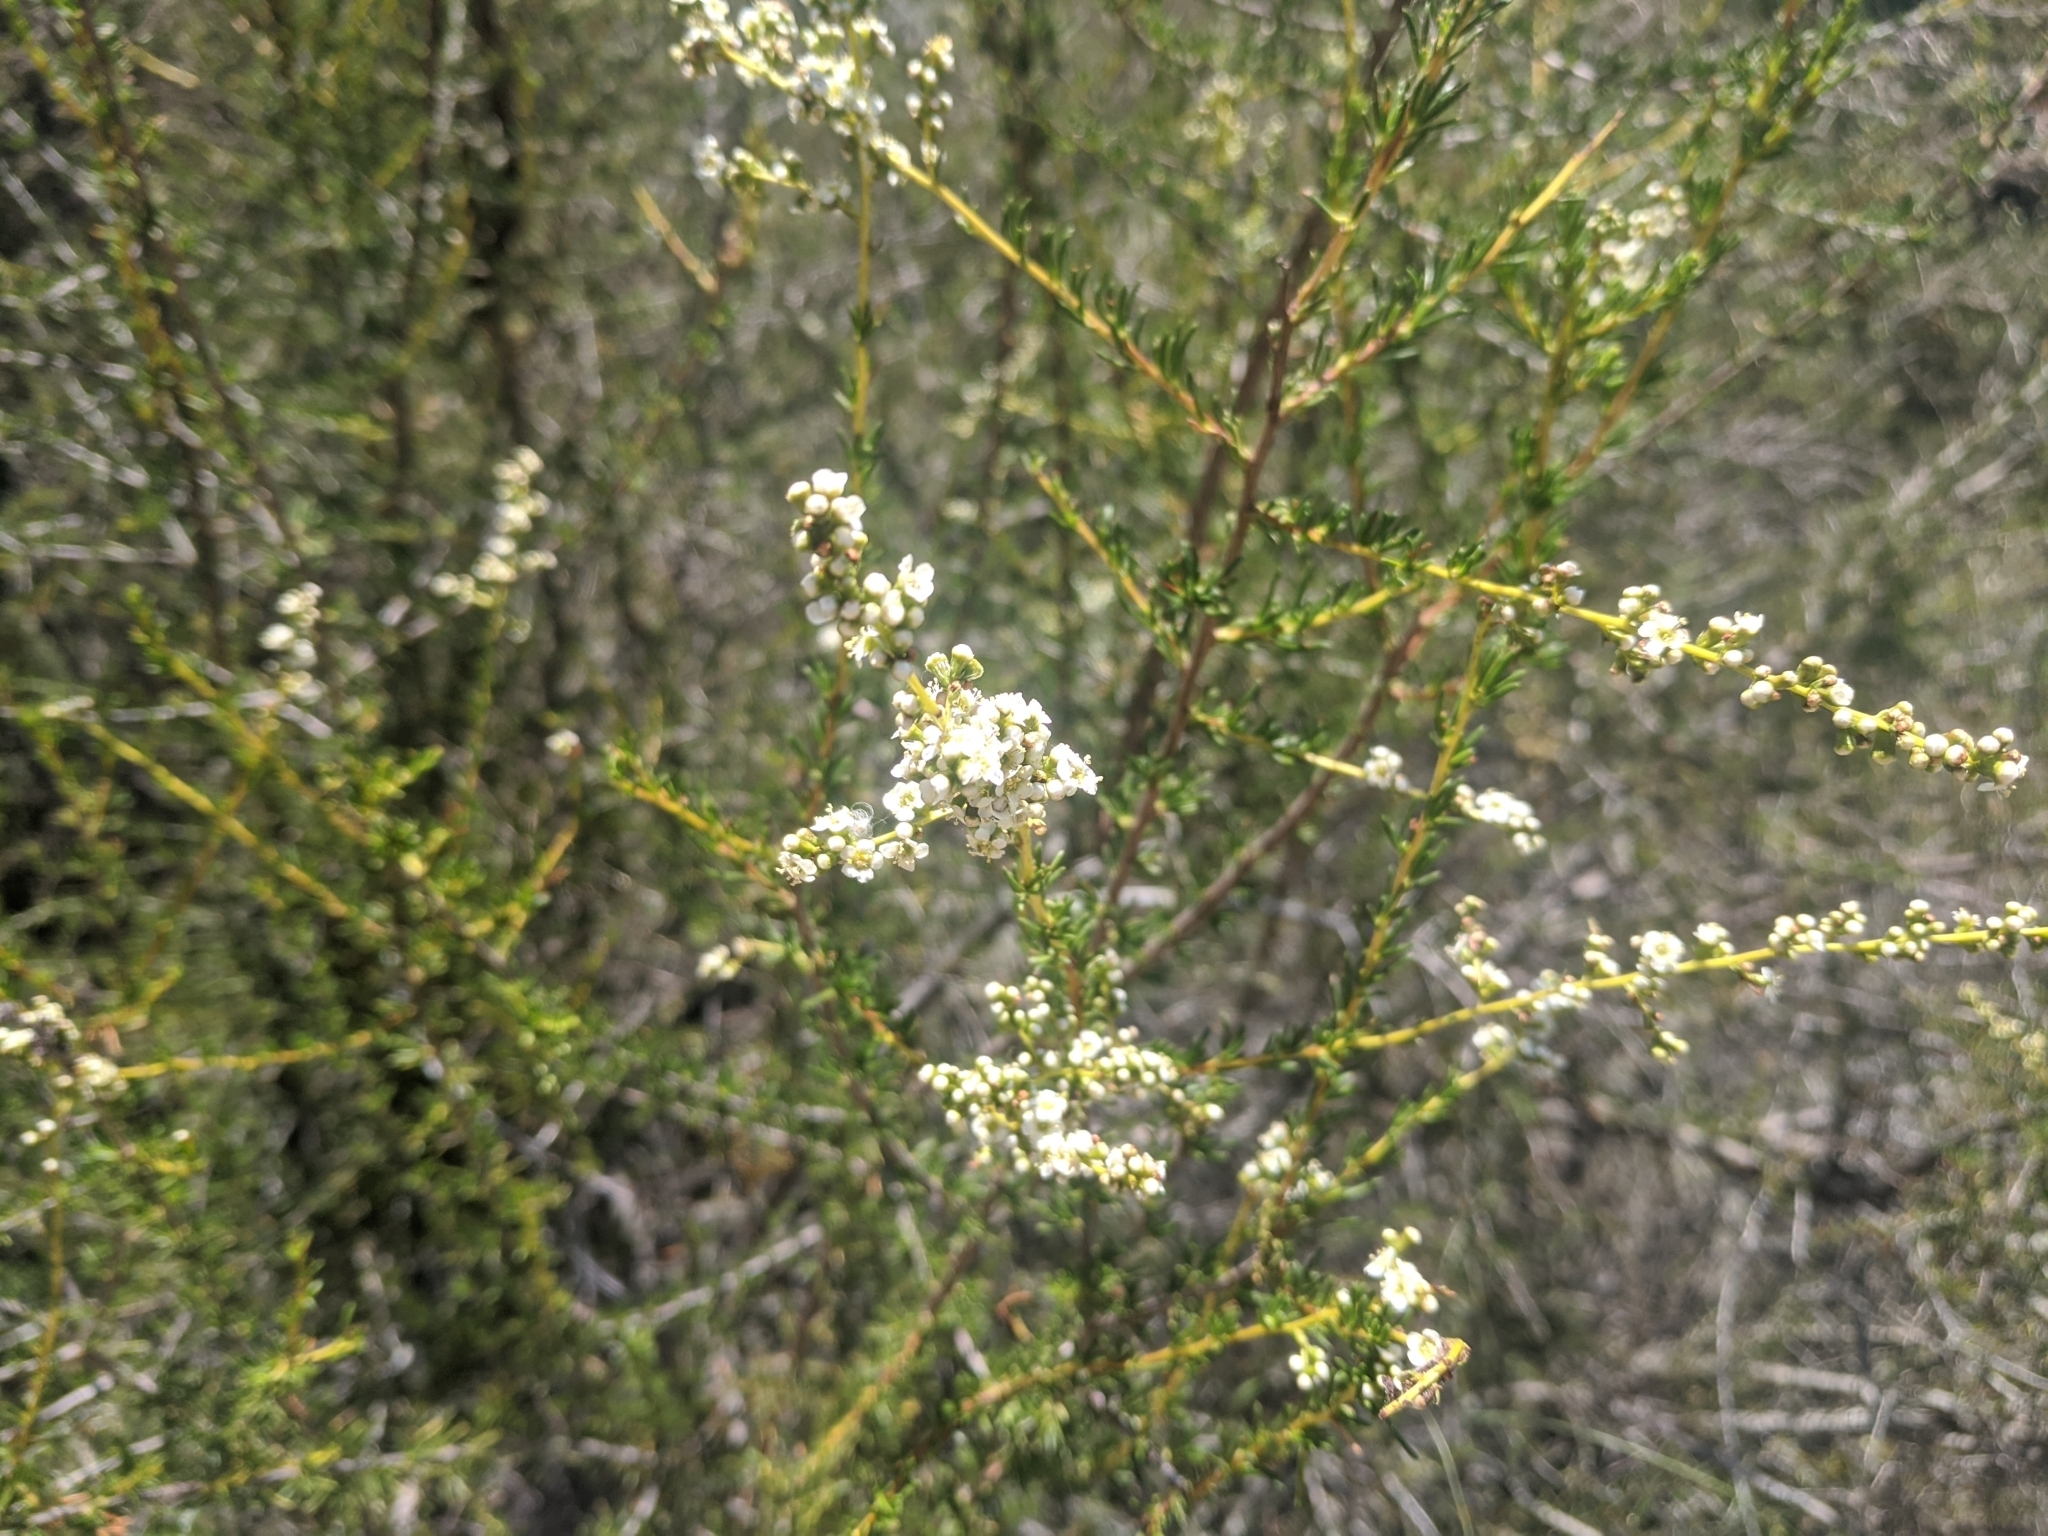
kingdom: Plantae
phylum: Tracheophyta
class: Magnoliopsida
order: Rosales
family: Rosaceae
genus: Adenostoma
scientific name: Adenostoma fasciculatum
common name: Chamise
